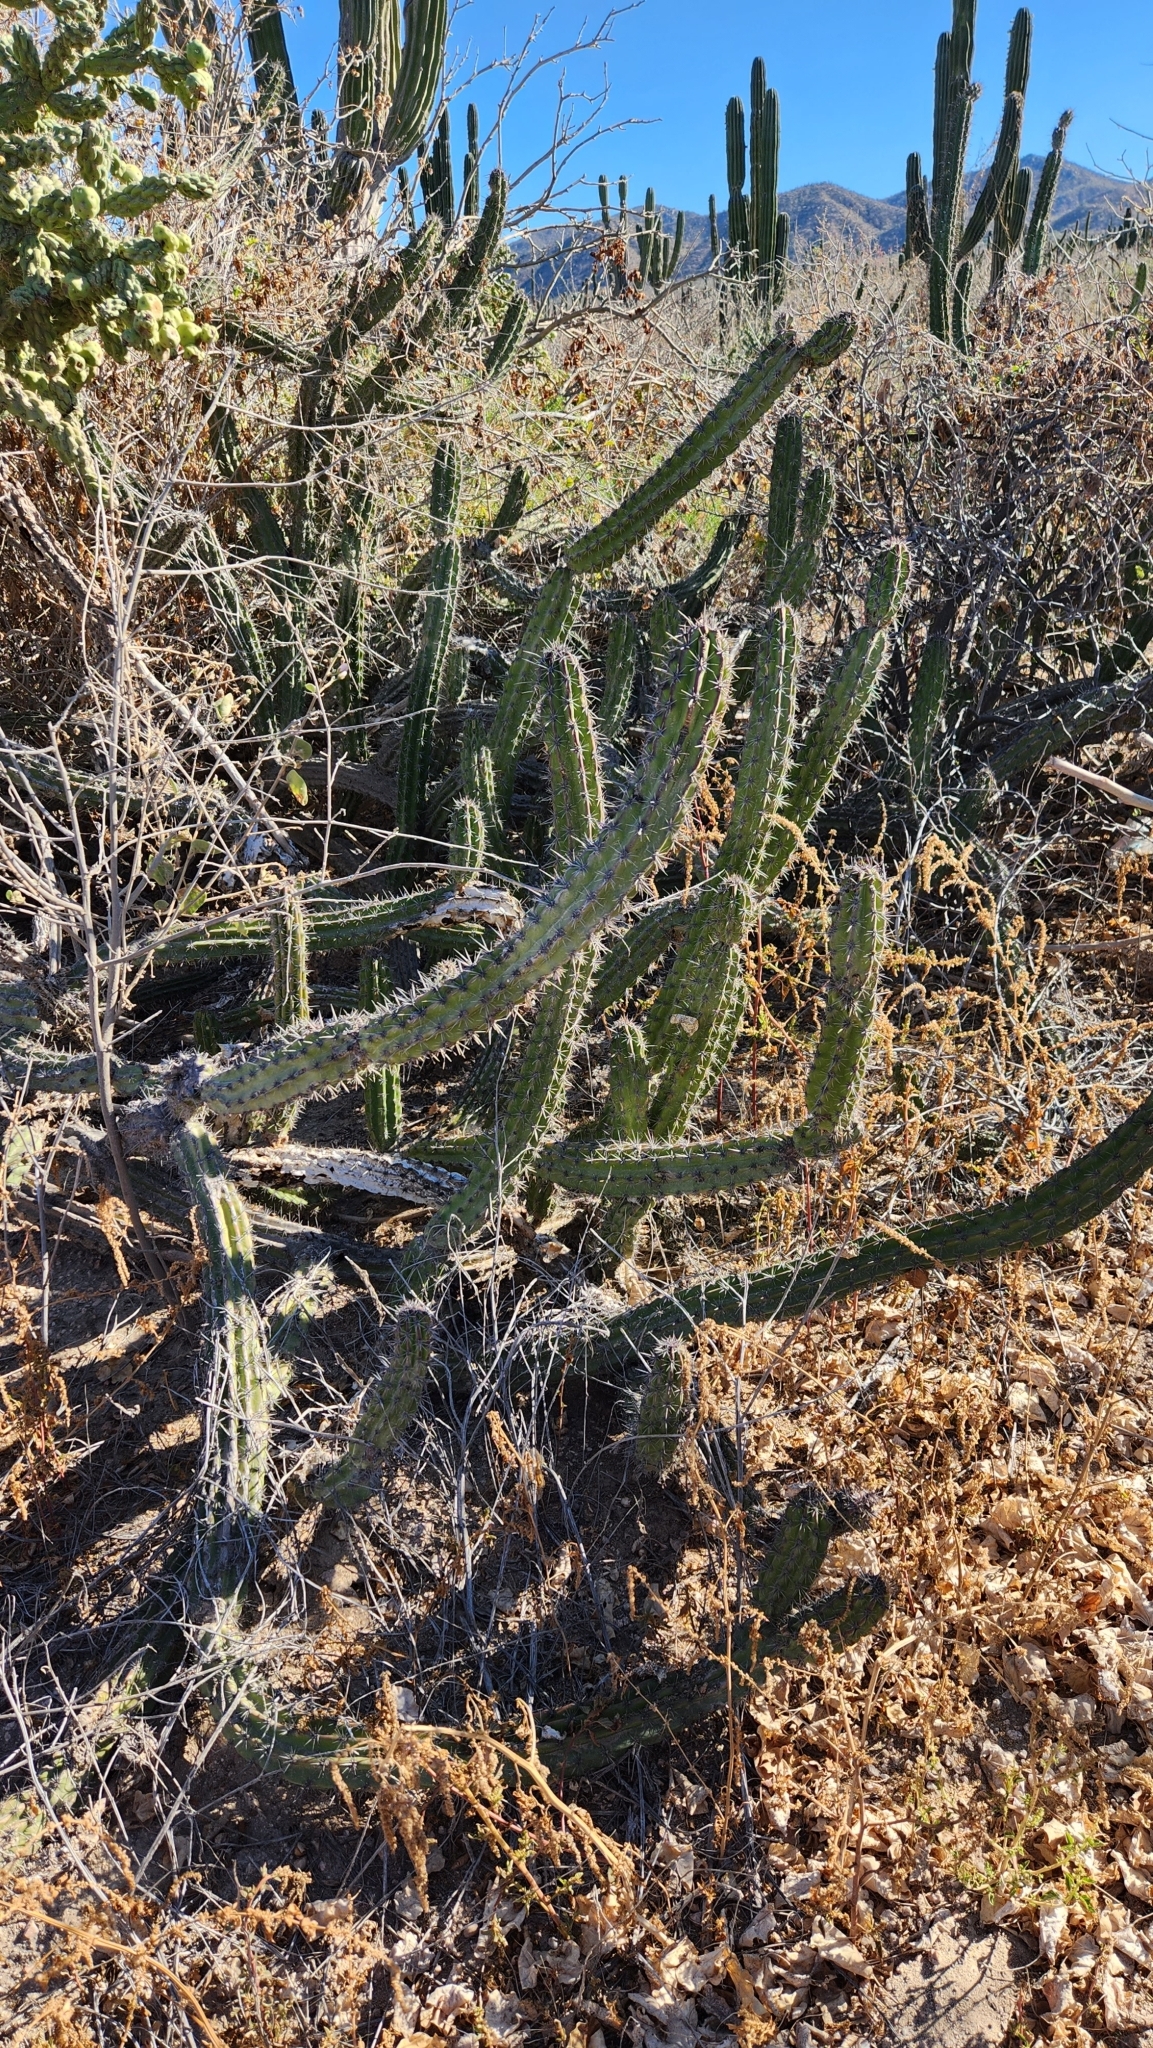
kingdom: Plantae
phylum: Tracheophyta
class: Magnoliopsida
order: Caryophyllales
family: Cactaceae
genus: Stenocereus
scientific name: Stenocereus gummosus
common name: Dagger cactus
